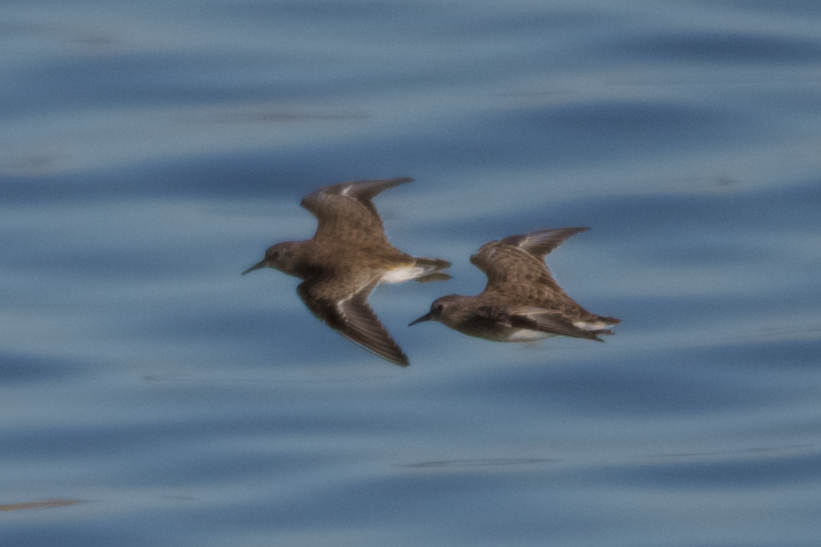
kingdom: Animalia
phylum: Chordata
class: Aves
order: Charadriiformes
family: Scolopacidae
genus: Calidris
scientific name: Calidris minutilla
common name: Least sandpiper
